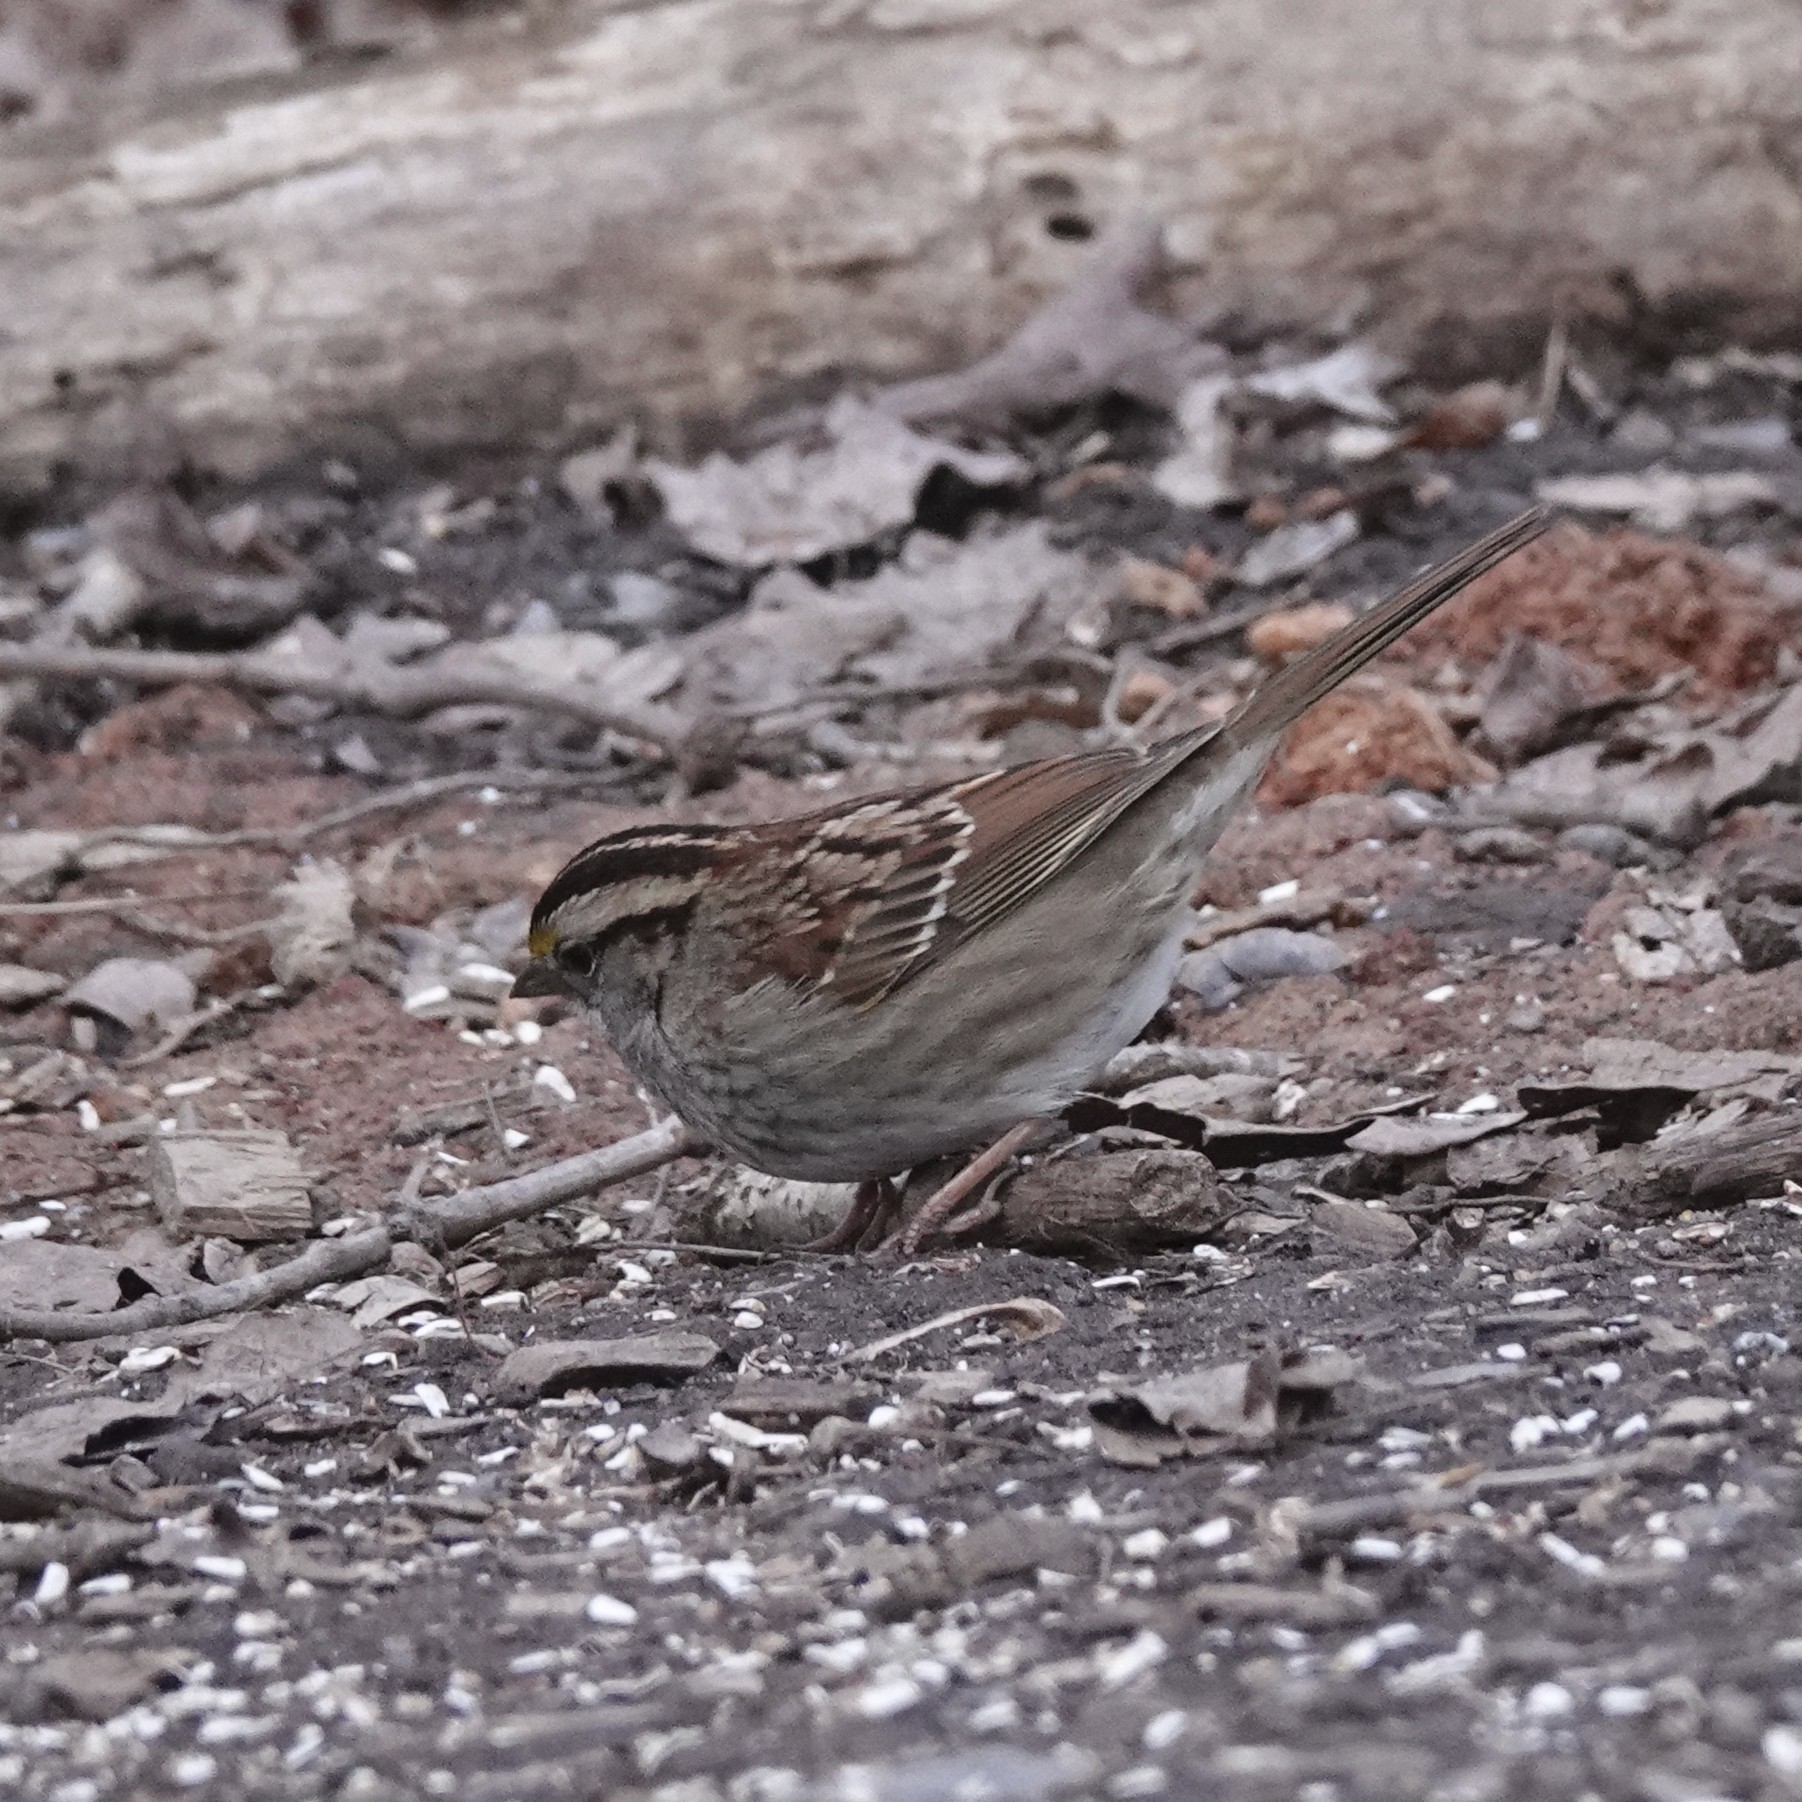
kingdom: Animalia
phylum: Chordata
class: Aves
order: Passeriformes
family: Passerellidae
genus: Zonotrichia
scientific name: Zonotrichia albicollis
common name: White-throated sparrow
